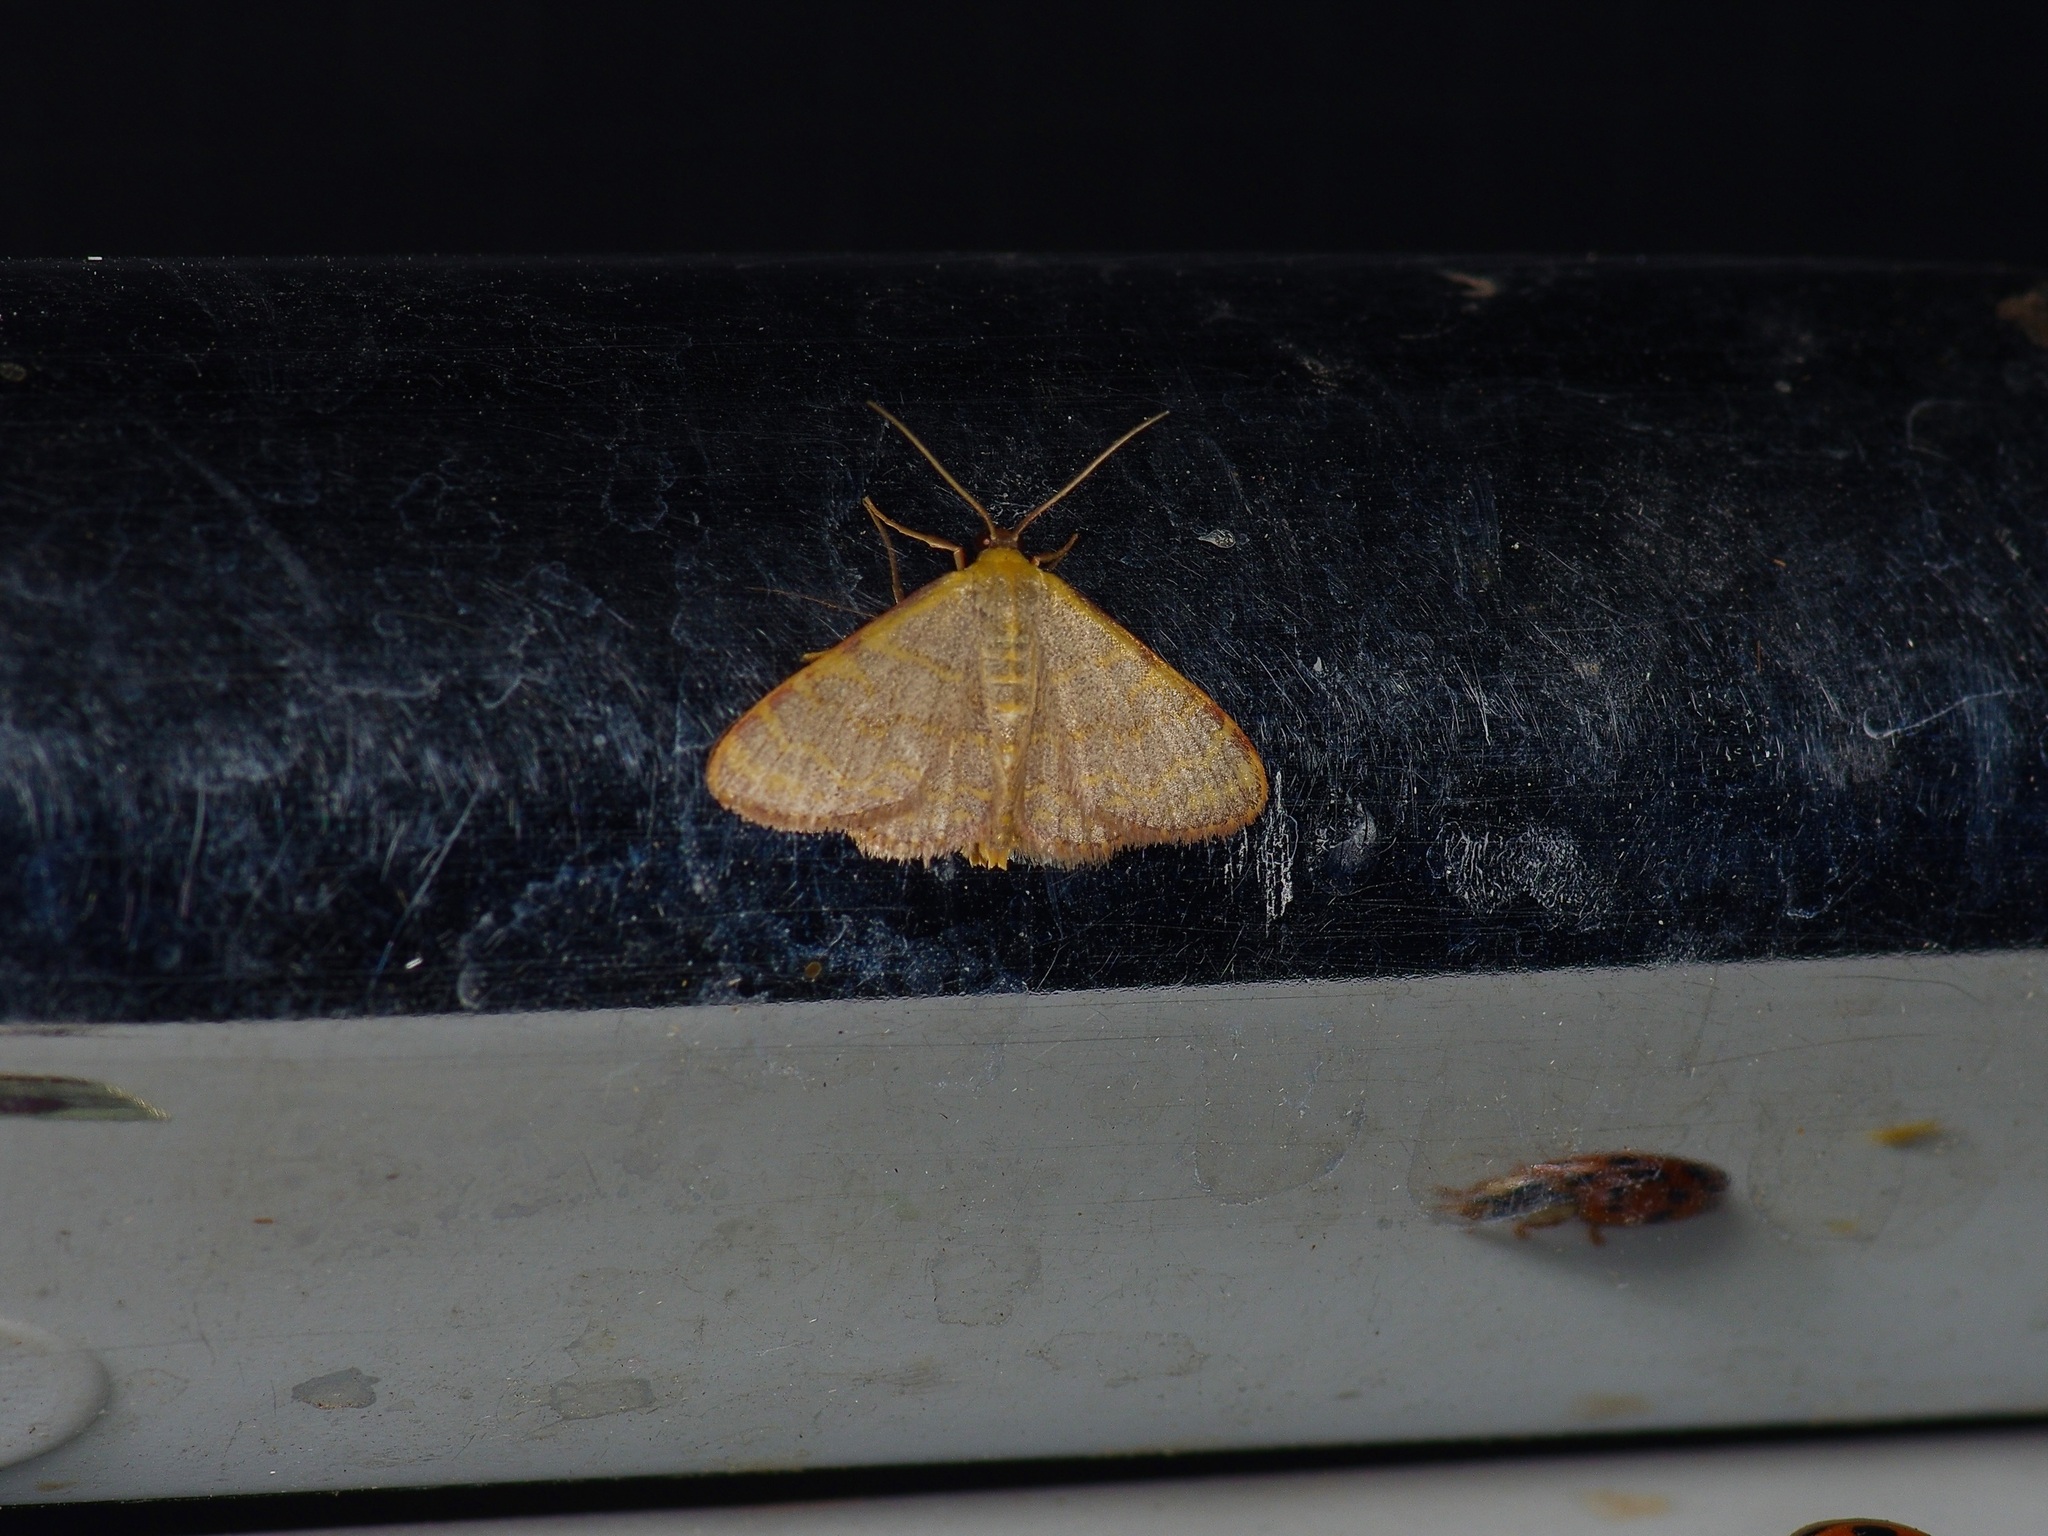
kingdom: Animalia
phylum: Arthropoda
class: Insecta
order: Lepidoptera
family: Geometridae
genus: Leptostales
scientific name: Leptostales pannaria
